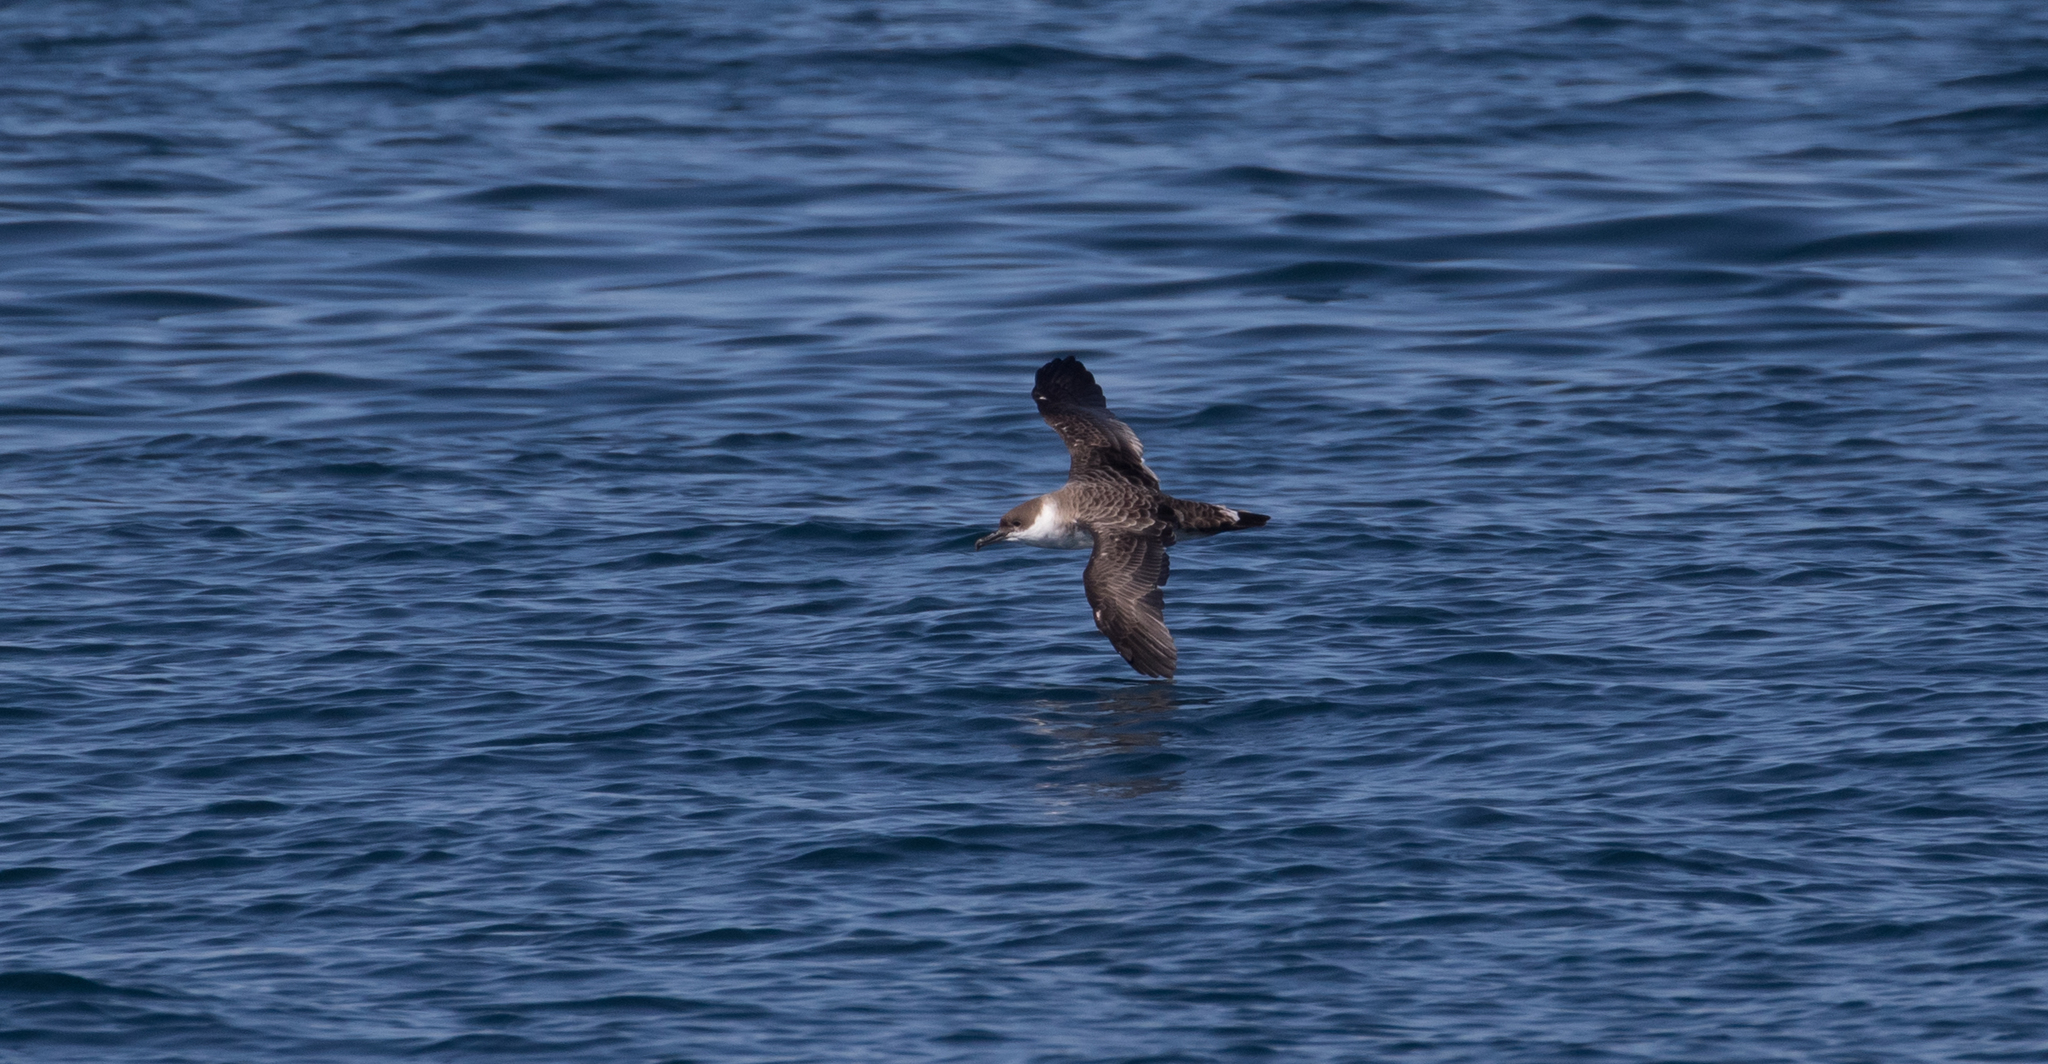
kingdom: Animalia
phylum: Chordata
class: Aves
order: Procellariiformes
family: Procellariidae
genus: Puffinus
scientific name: Puffinus gravis
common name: Great shearwater
